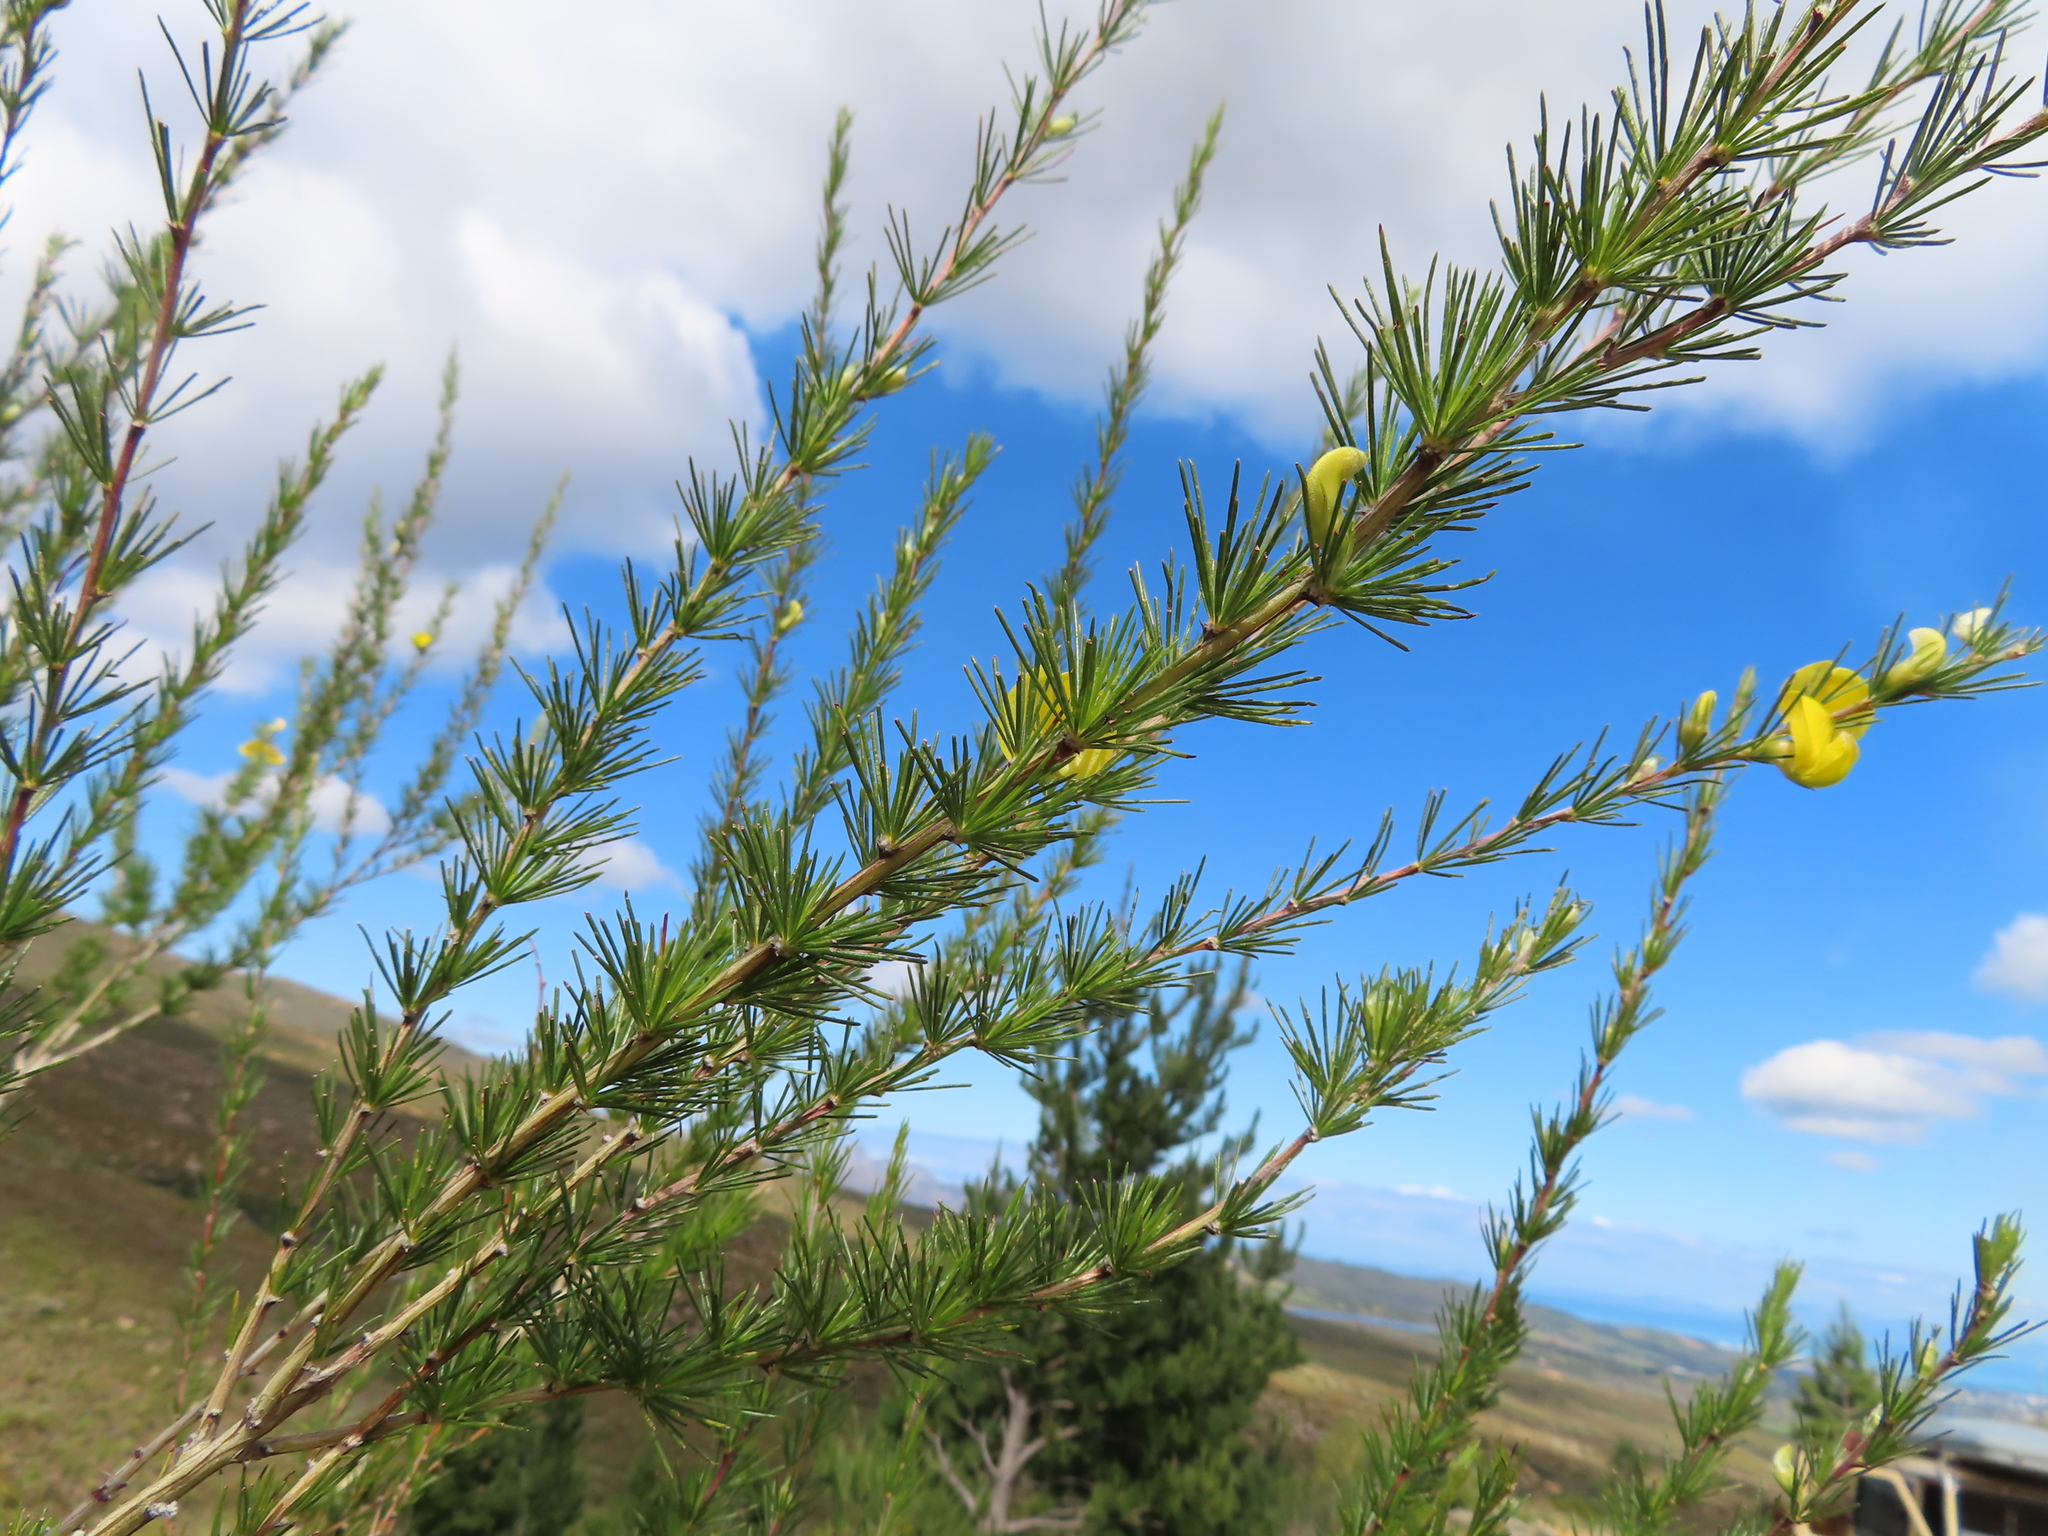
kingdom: Plantae
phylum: Tracheophyta
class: Magnoliopsida
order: Fabales
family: Fabaceae
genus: Aspalathus
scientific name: Aspalathus willdenowiana
